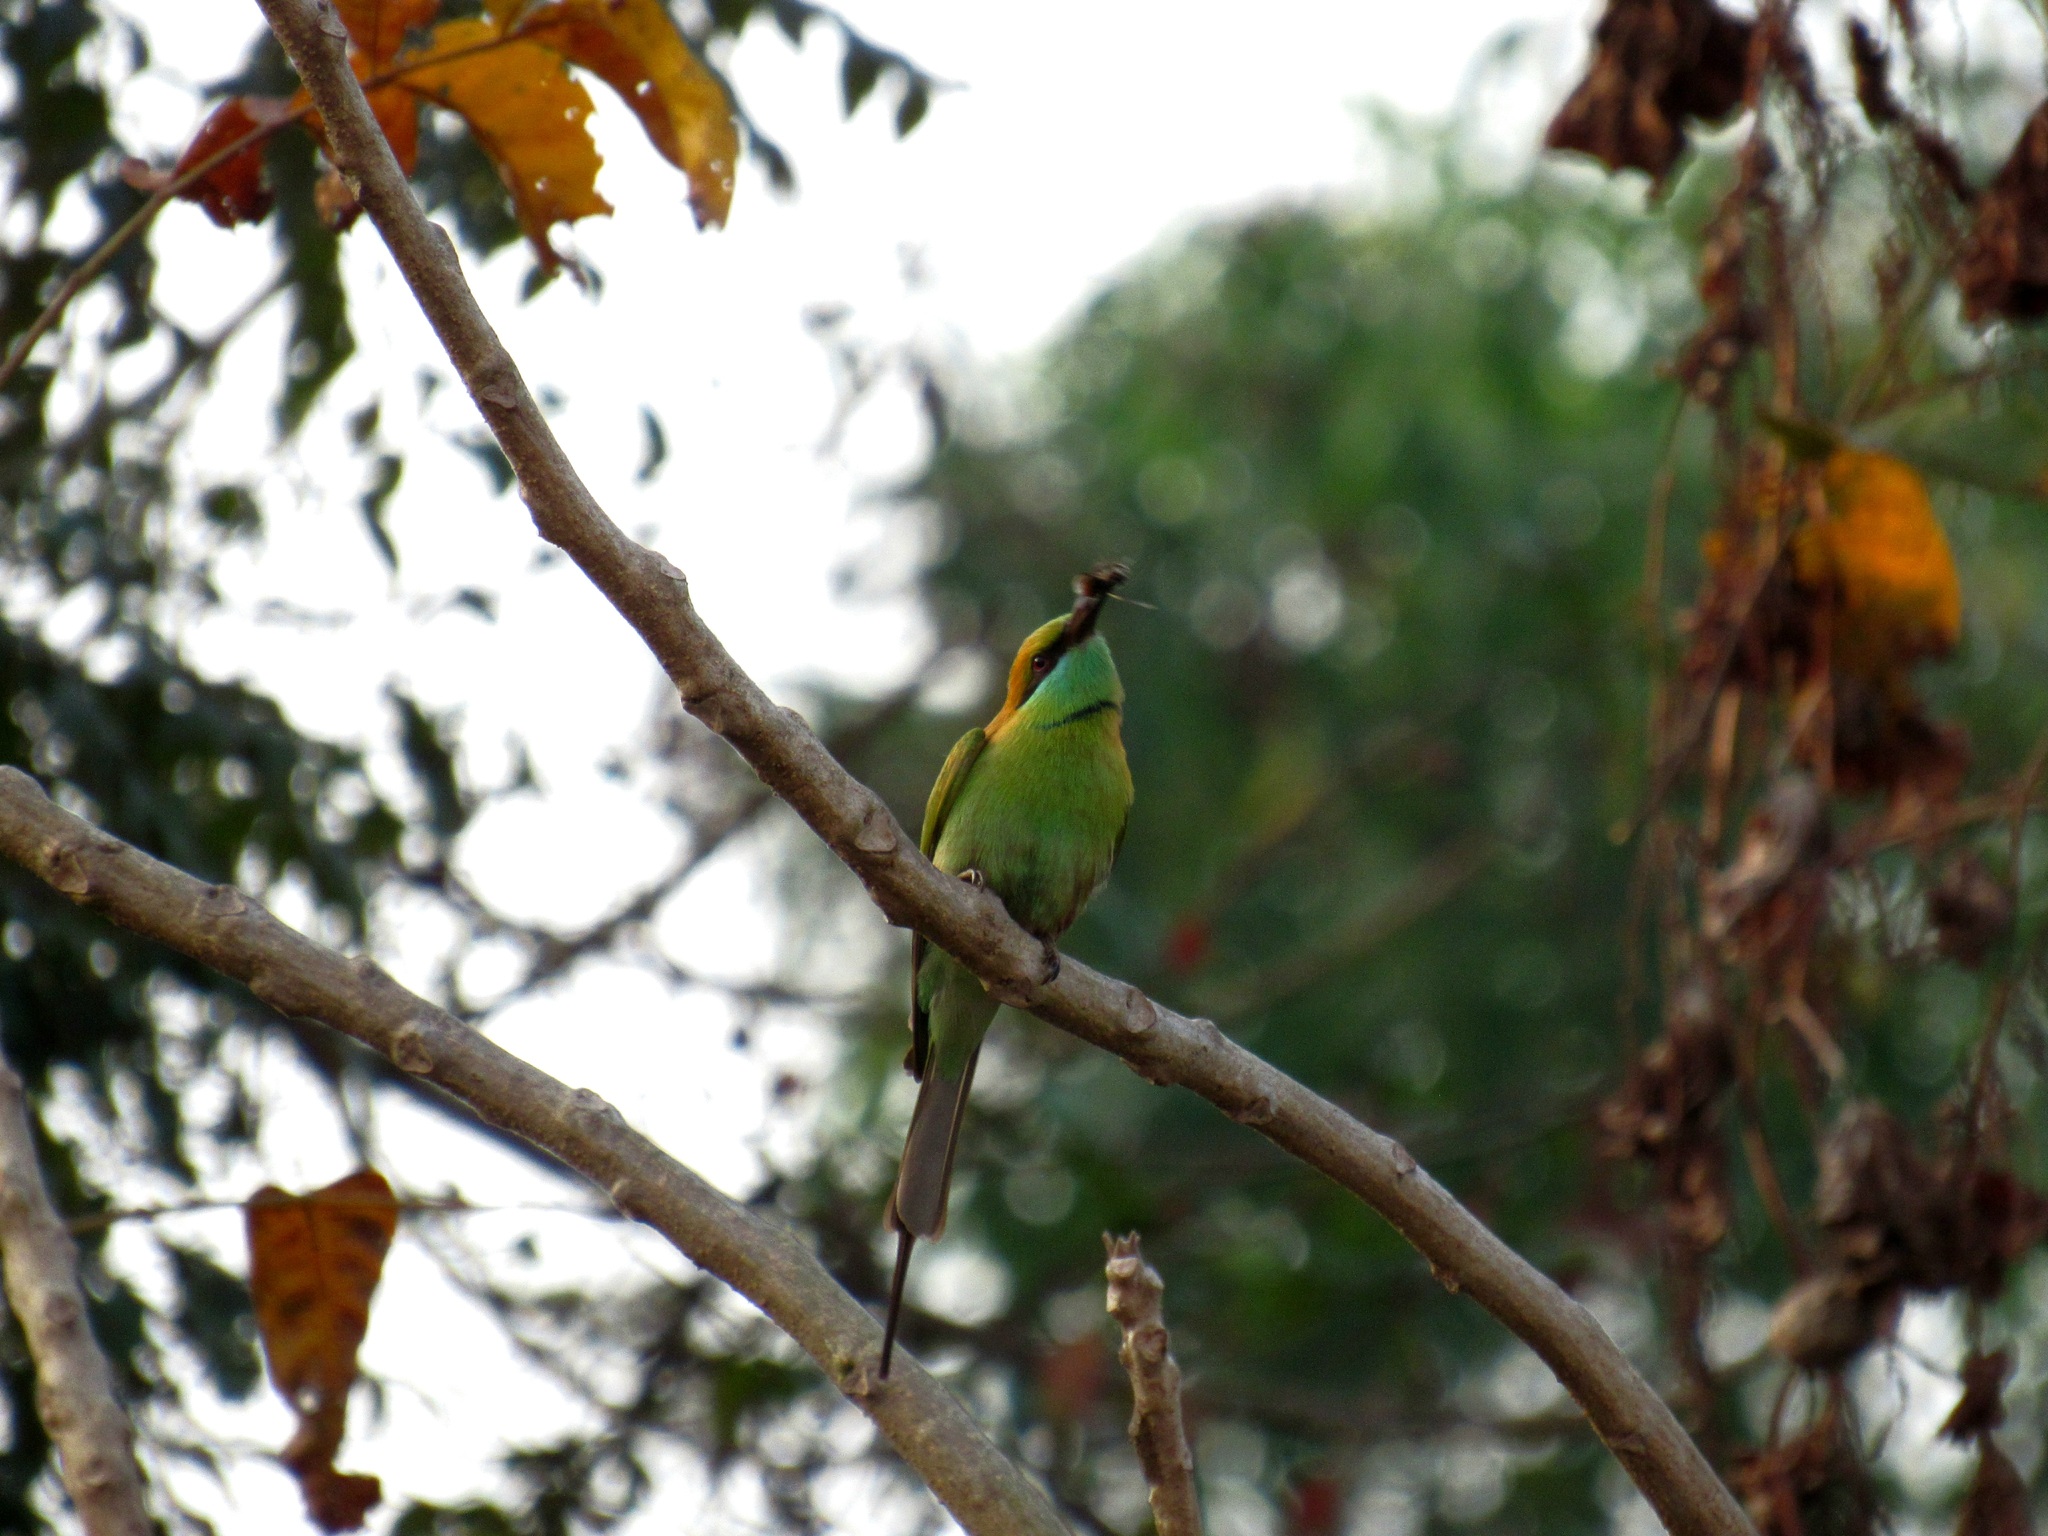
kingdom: Animalia
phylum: Chordata
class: Aves
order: Coraciiformes
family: Meropidae
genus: Merops
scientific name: Merops orientalis
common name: Green bee-eater
